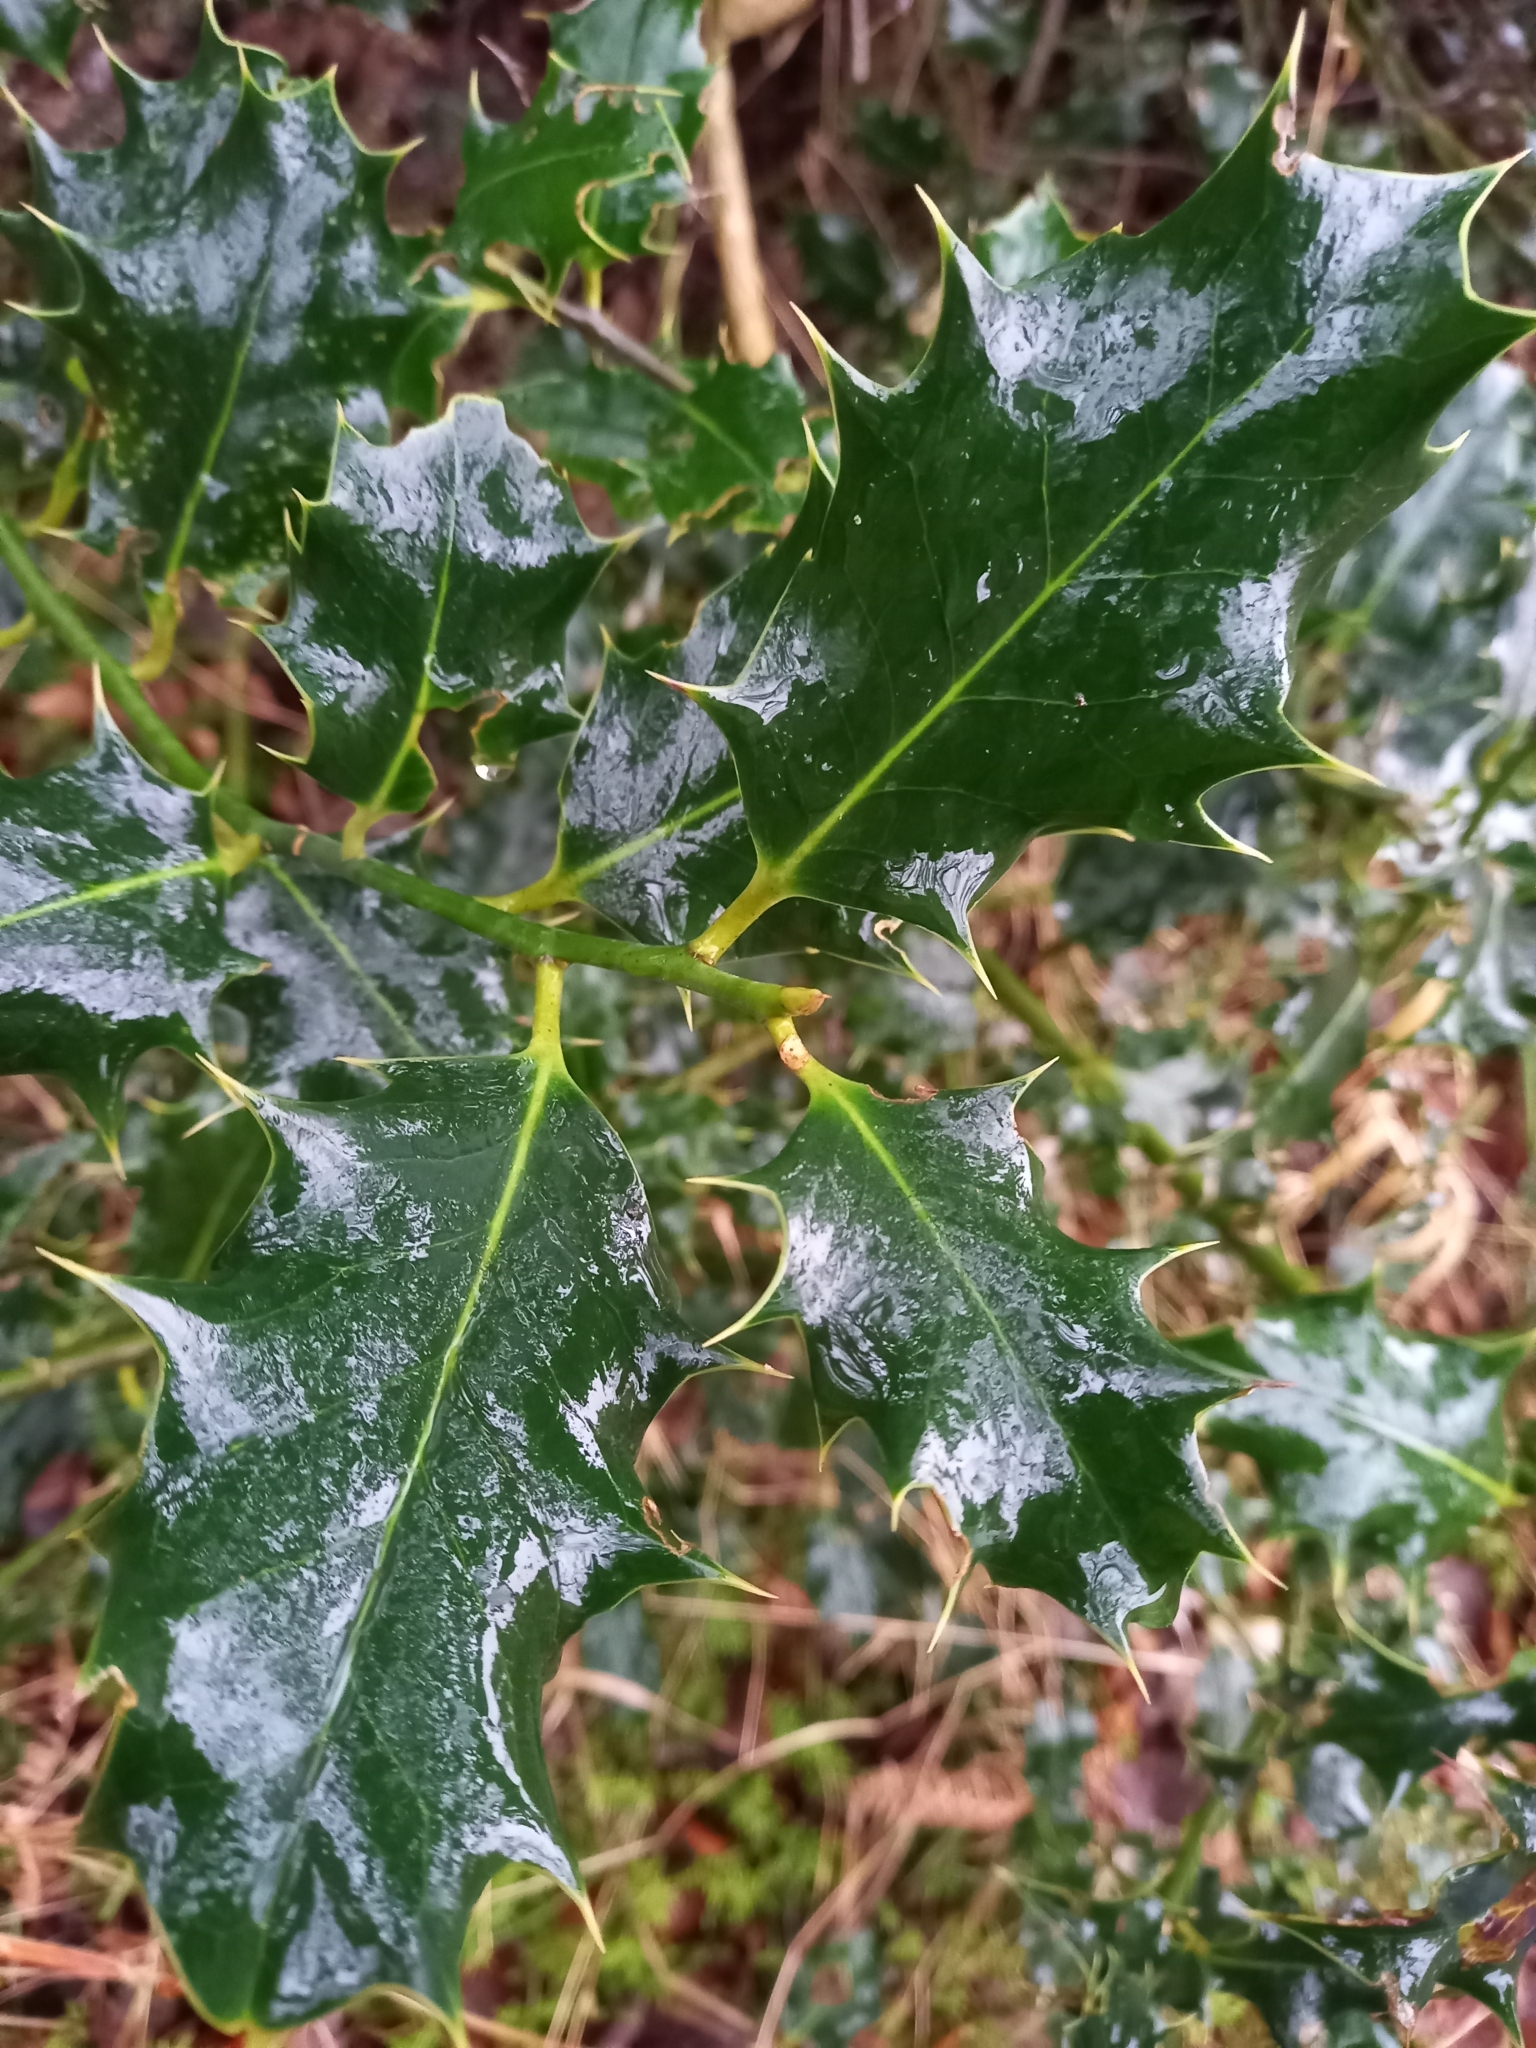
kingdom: Plantae
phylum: Tracheophyta
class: Magnoliopsida
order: Aquifoliales
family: Aquifoliaceae
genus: Ilex
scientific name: Ilex aquifolium
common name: English holly
